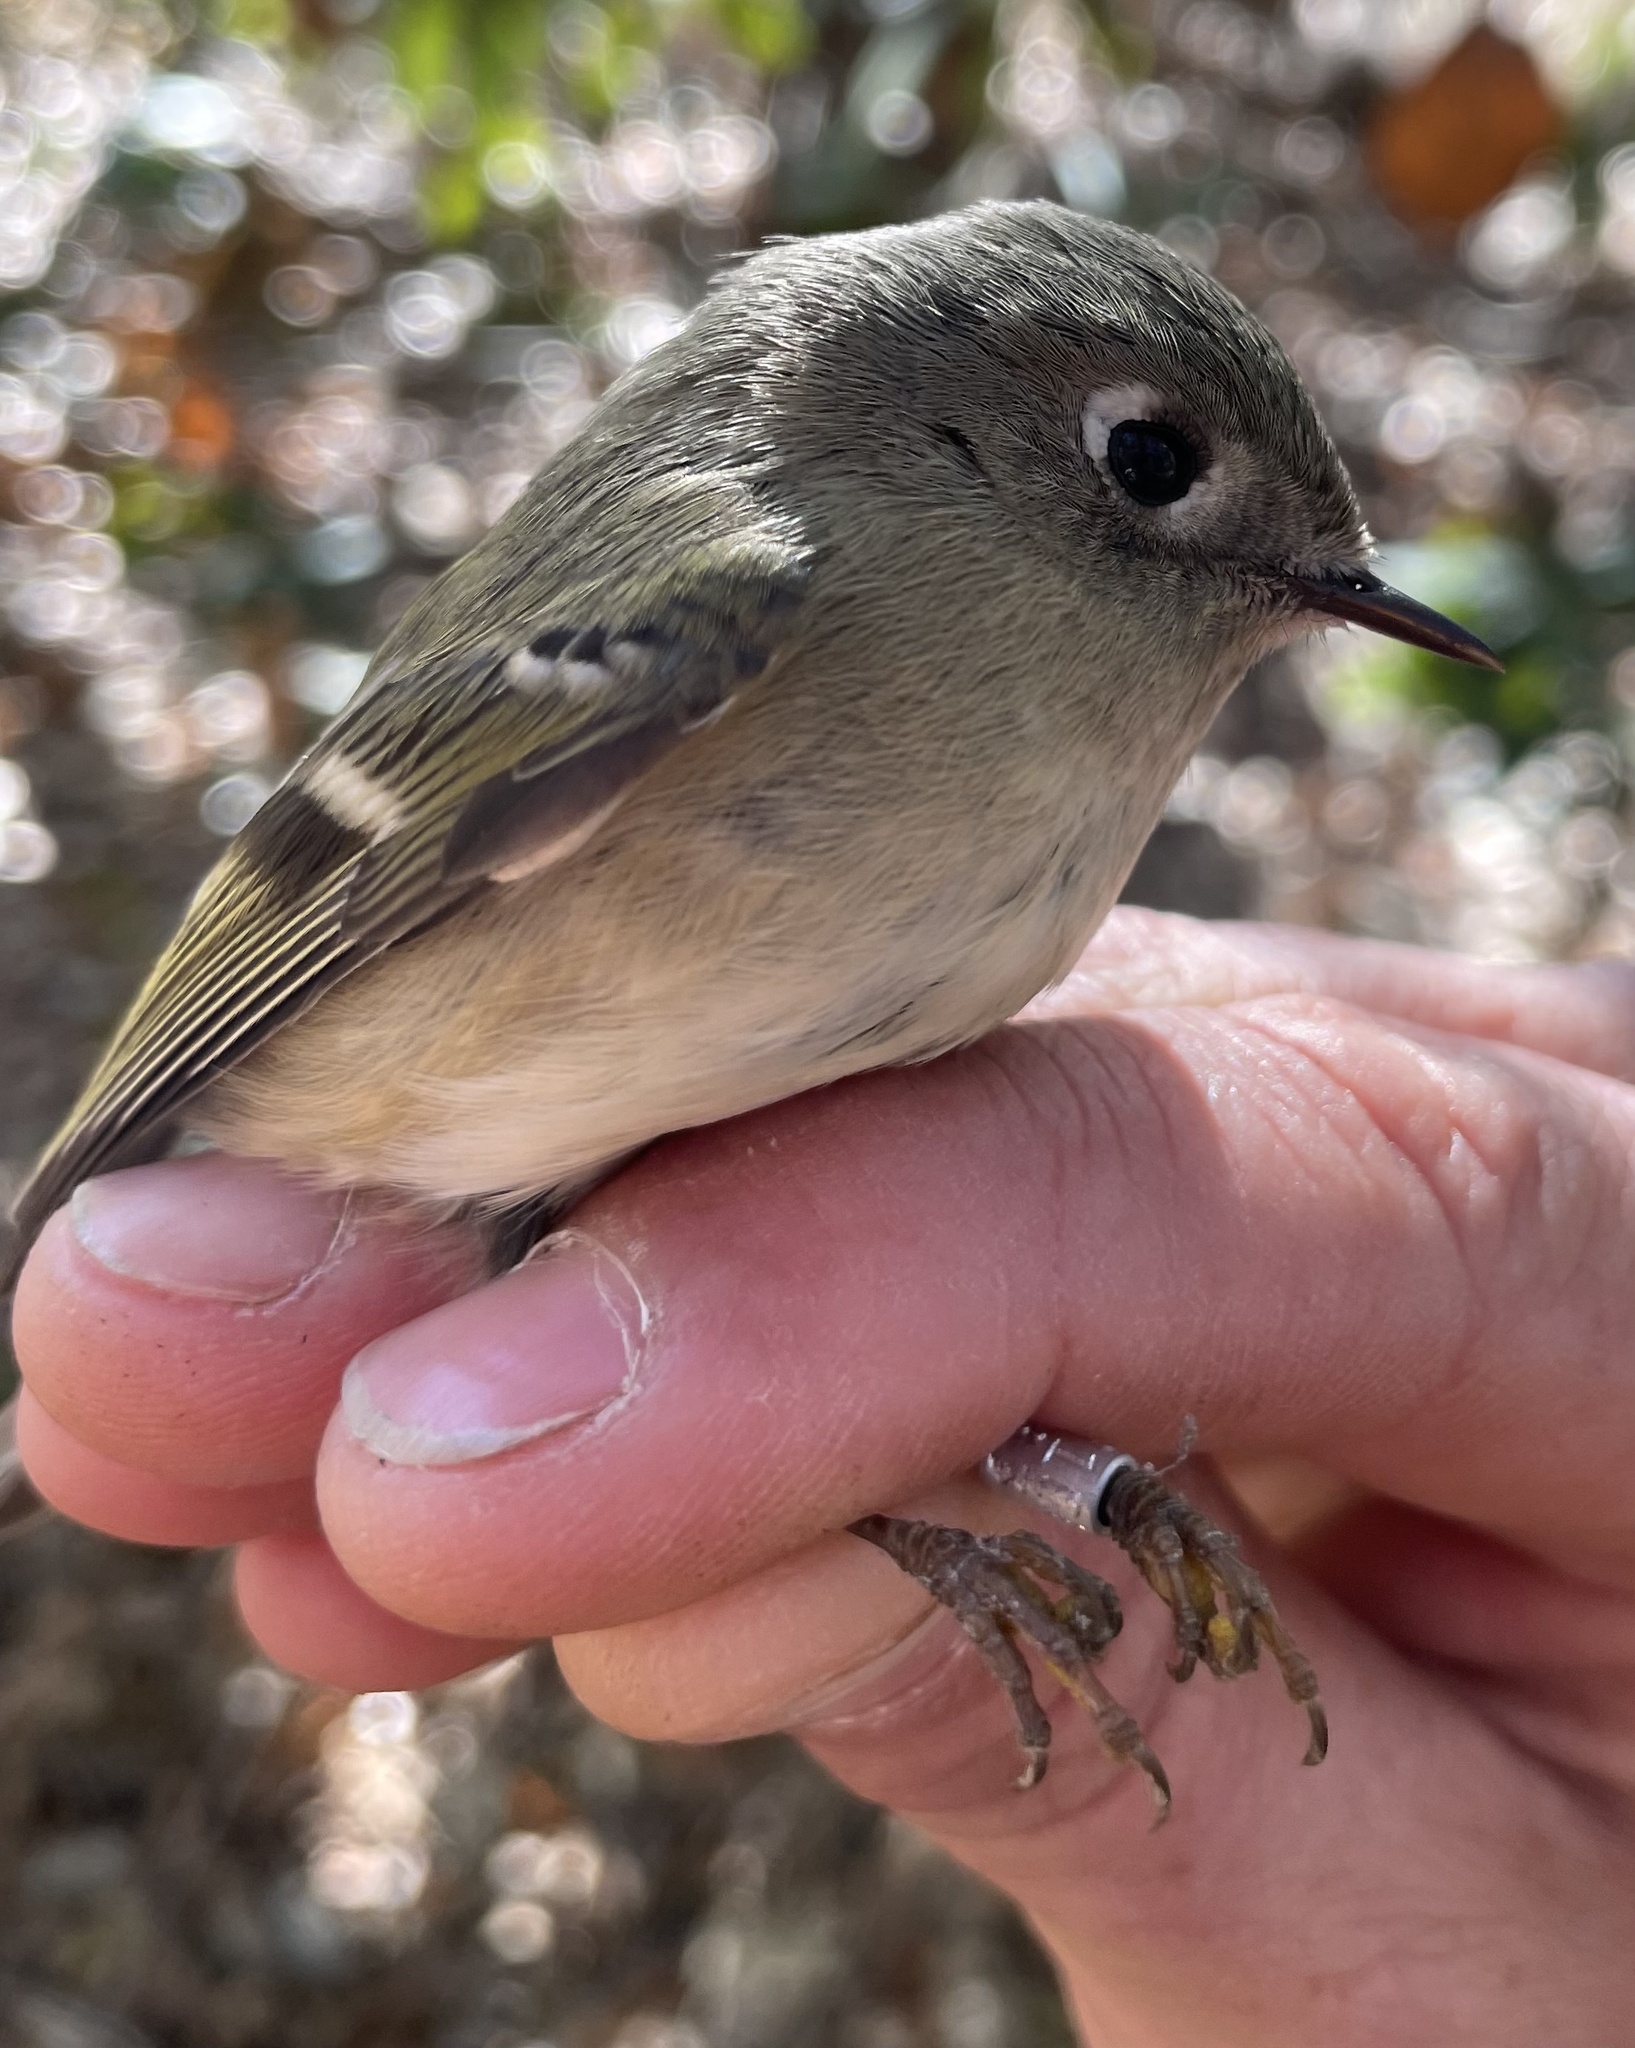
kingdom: Animalia
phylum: Chordata
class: Aves
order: Passeriformes
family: Regulidae
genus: Regulus
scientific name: Regulus calendula
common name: Ruby-crowned kinglet
